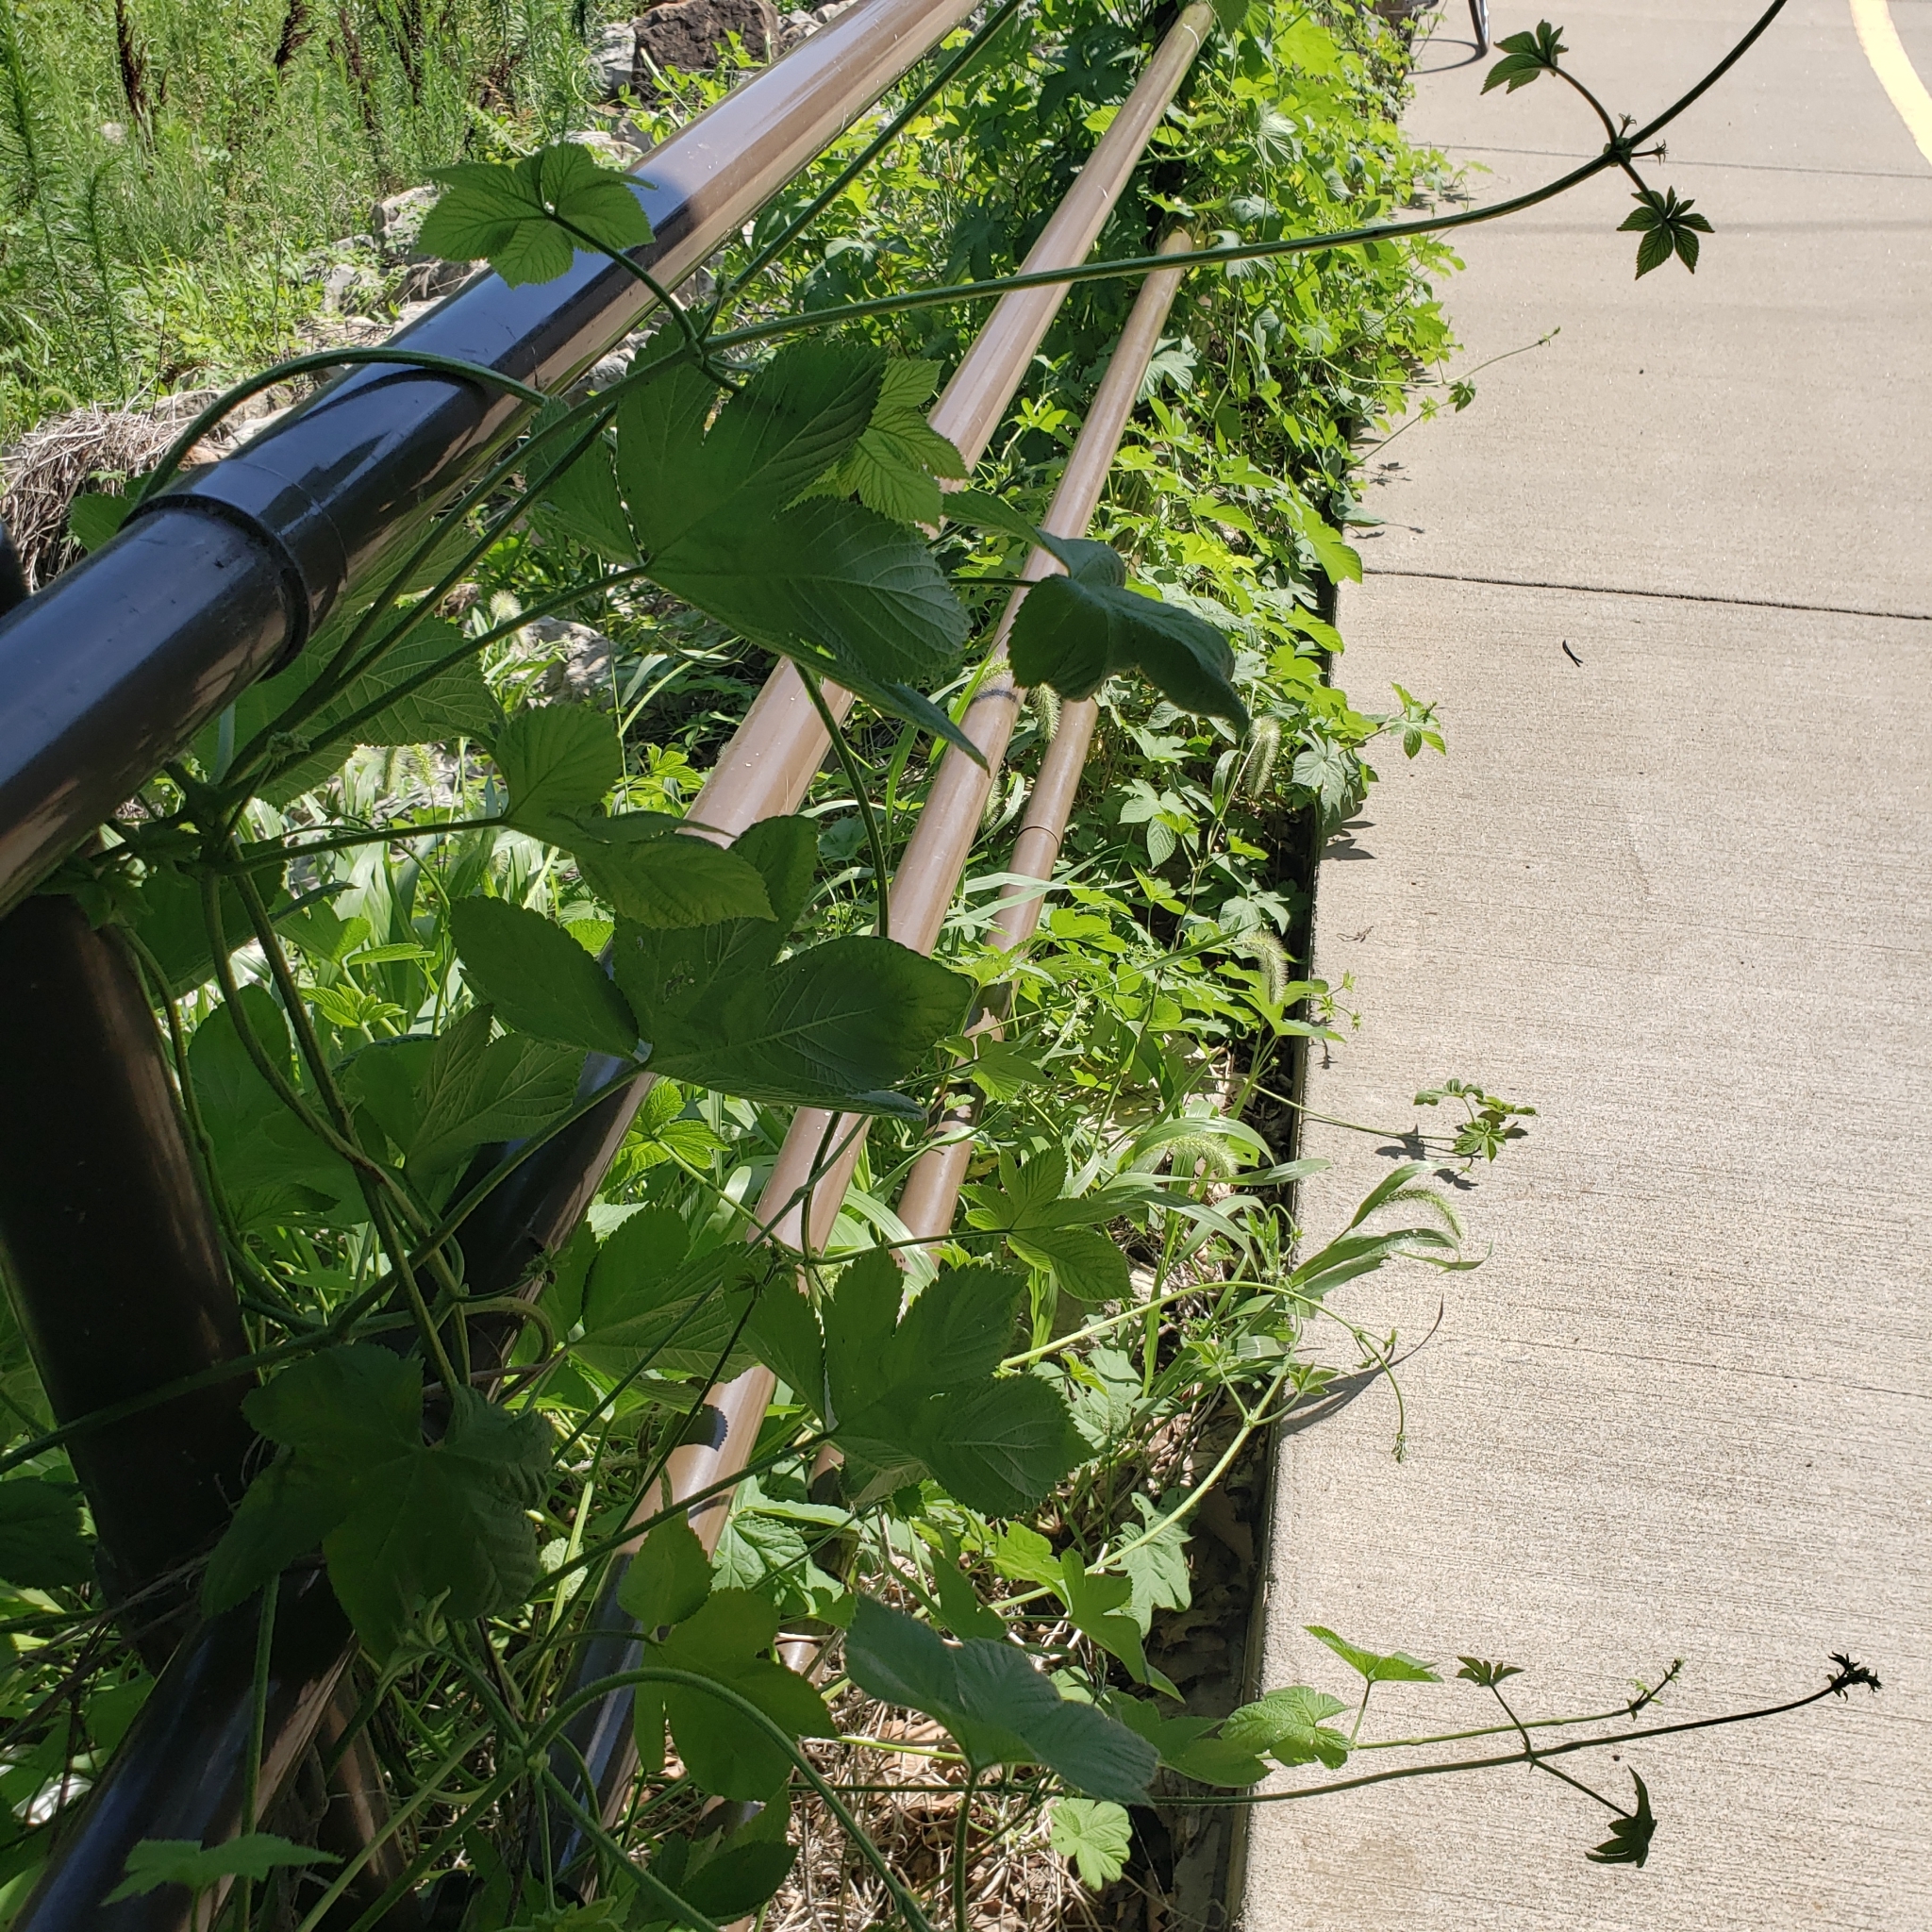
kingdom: Plantae
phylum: Tracheophyta
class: Magnoliopsida
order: Rosales
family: Cannabaceae
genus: Humulus
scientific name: Humulus scandens
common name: Japanese hop
